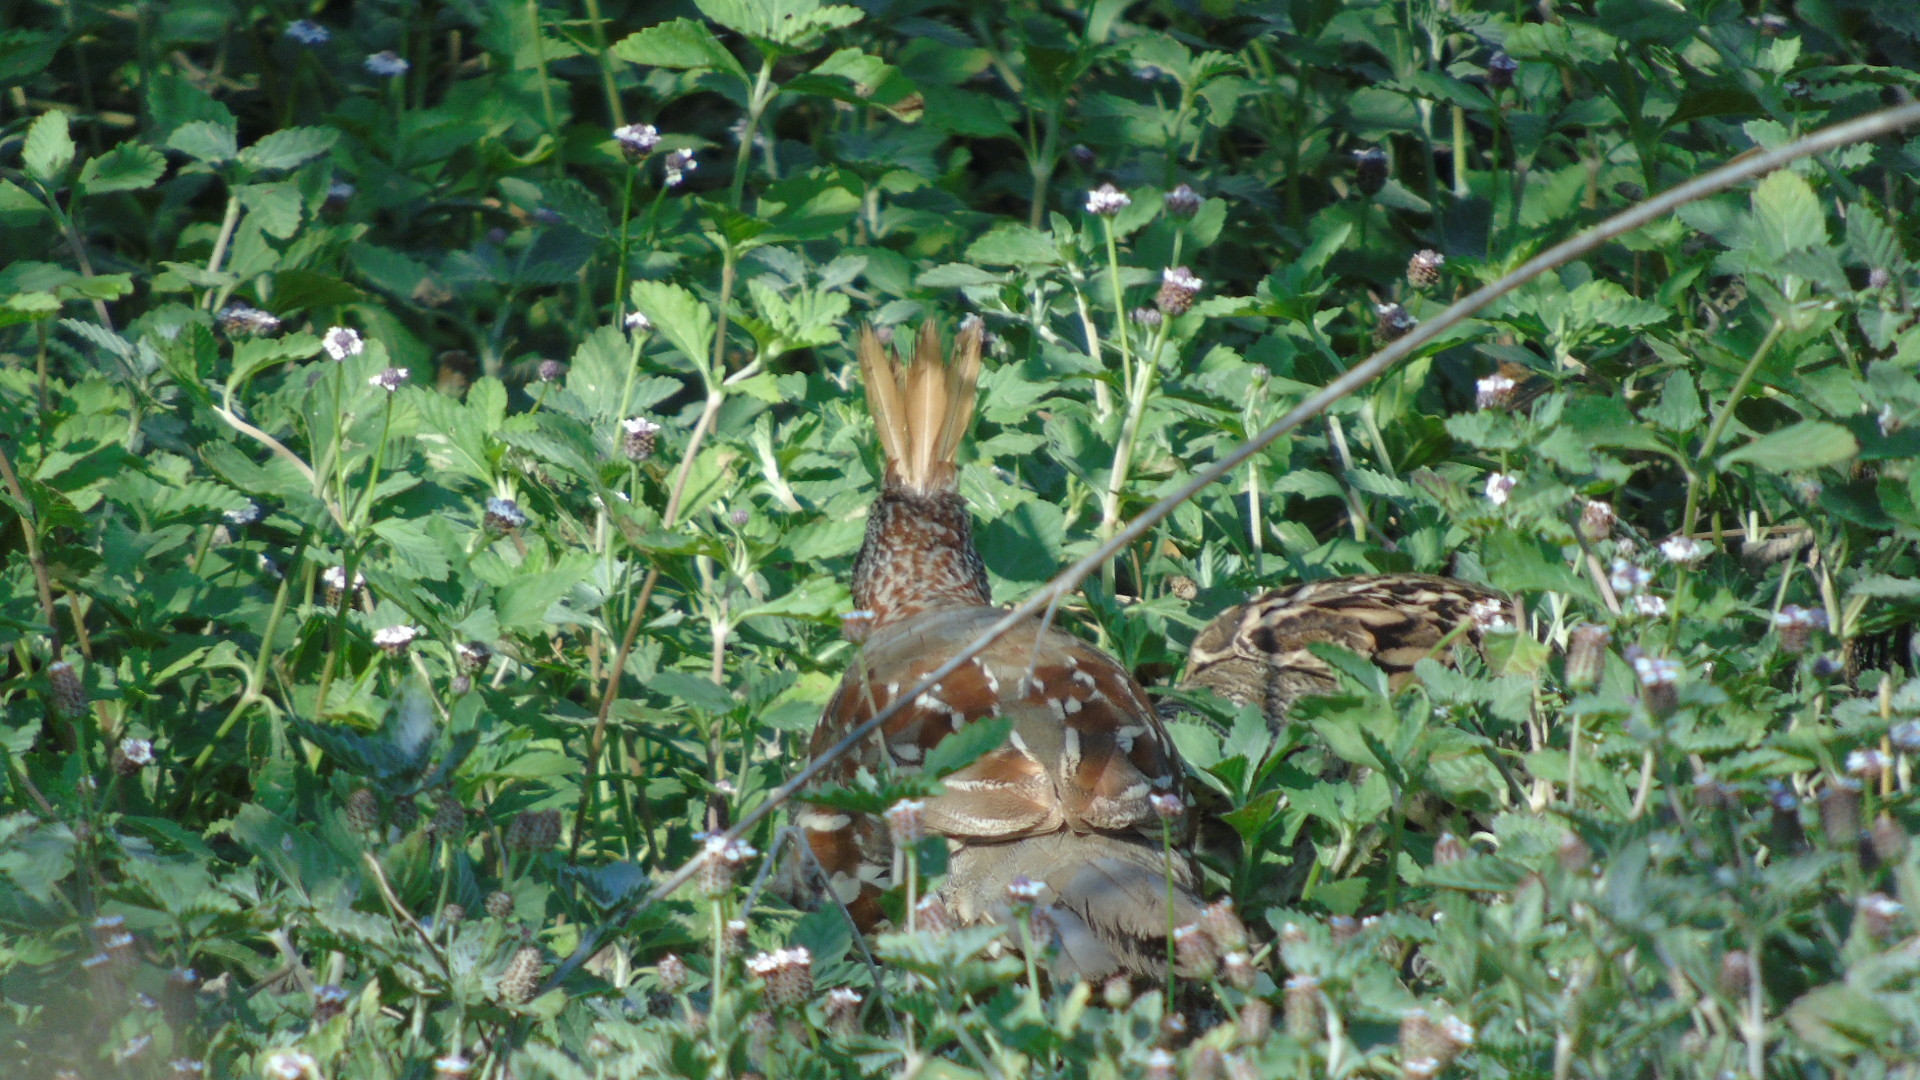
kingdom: Animalia
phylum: Chordata
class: Aves
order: Galliformes
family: Odontophoridae
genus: Callipepla
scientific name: Callipepla douglasii
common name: Elegant quail
